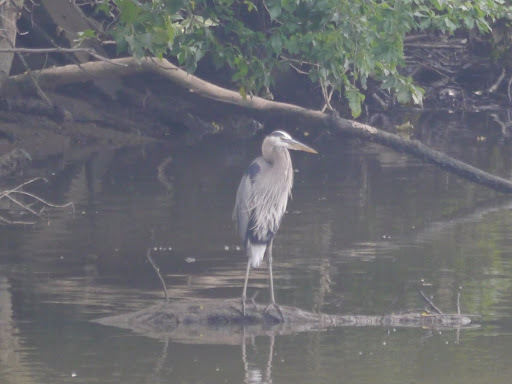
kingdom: Animalia
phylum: Chordata
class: Aves
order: Pelecaniformes
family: Ardeidae
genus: Ardea
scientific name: Ardea herodias
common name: Great blue heron
